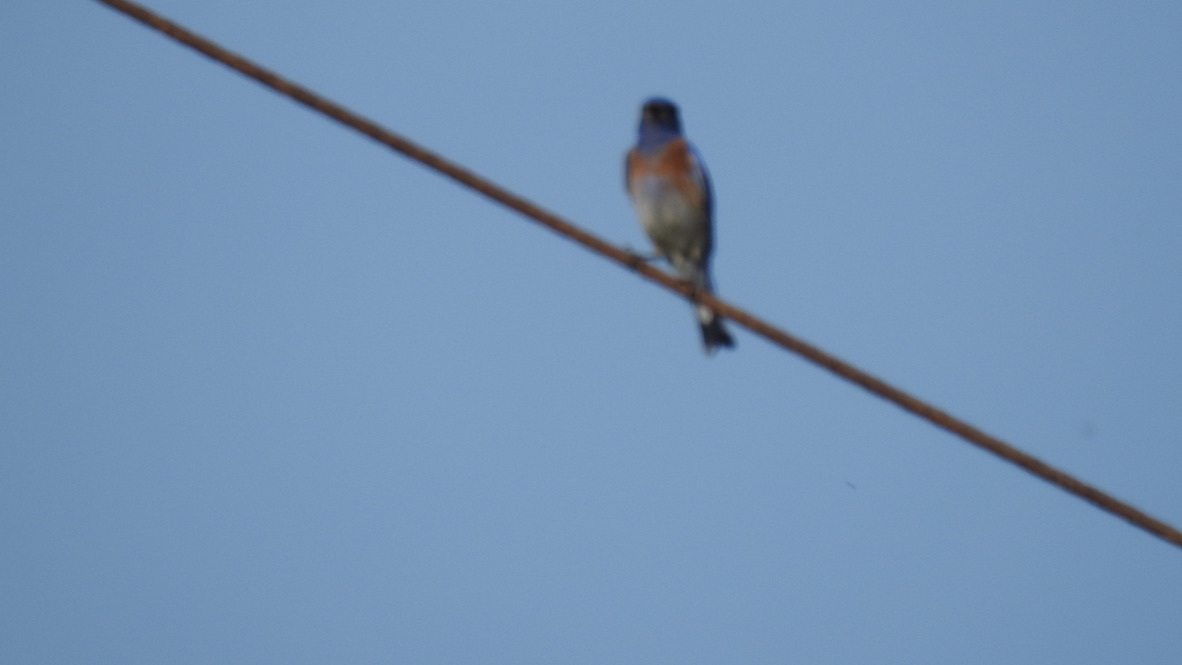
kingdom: Animalia
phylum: Chordata
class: Aves
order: Passeriformes
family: Turdidae
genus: Sialia
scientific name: Sialia mexicana
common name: Western bluebird
